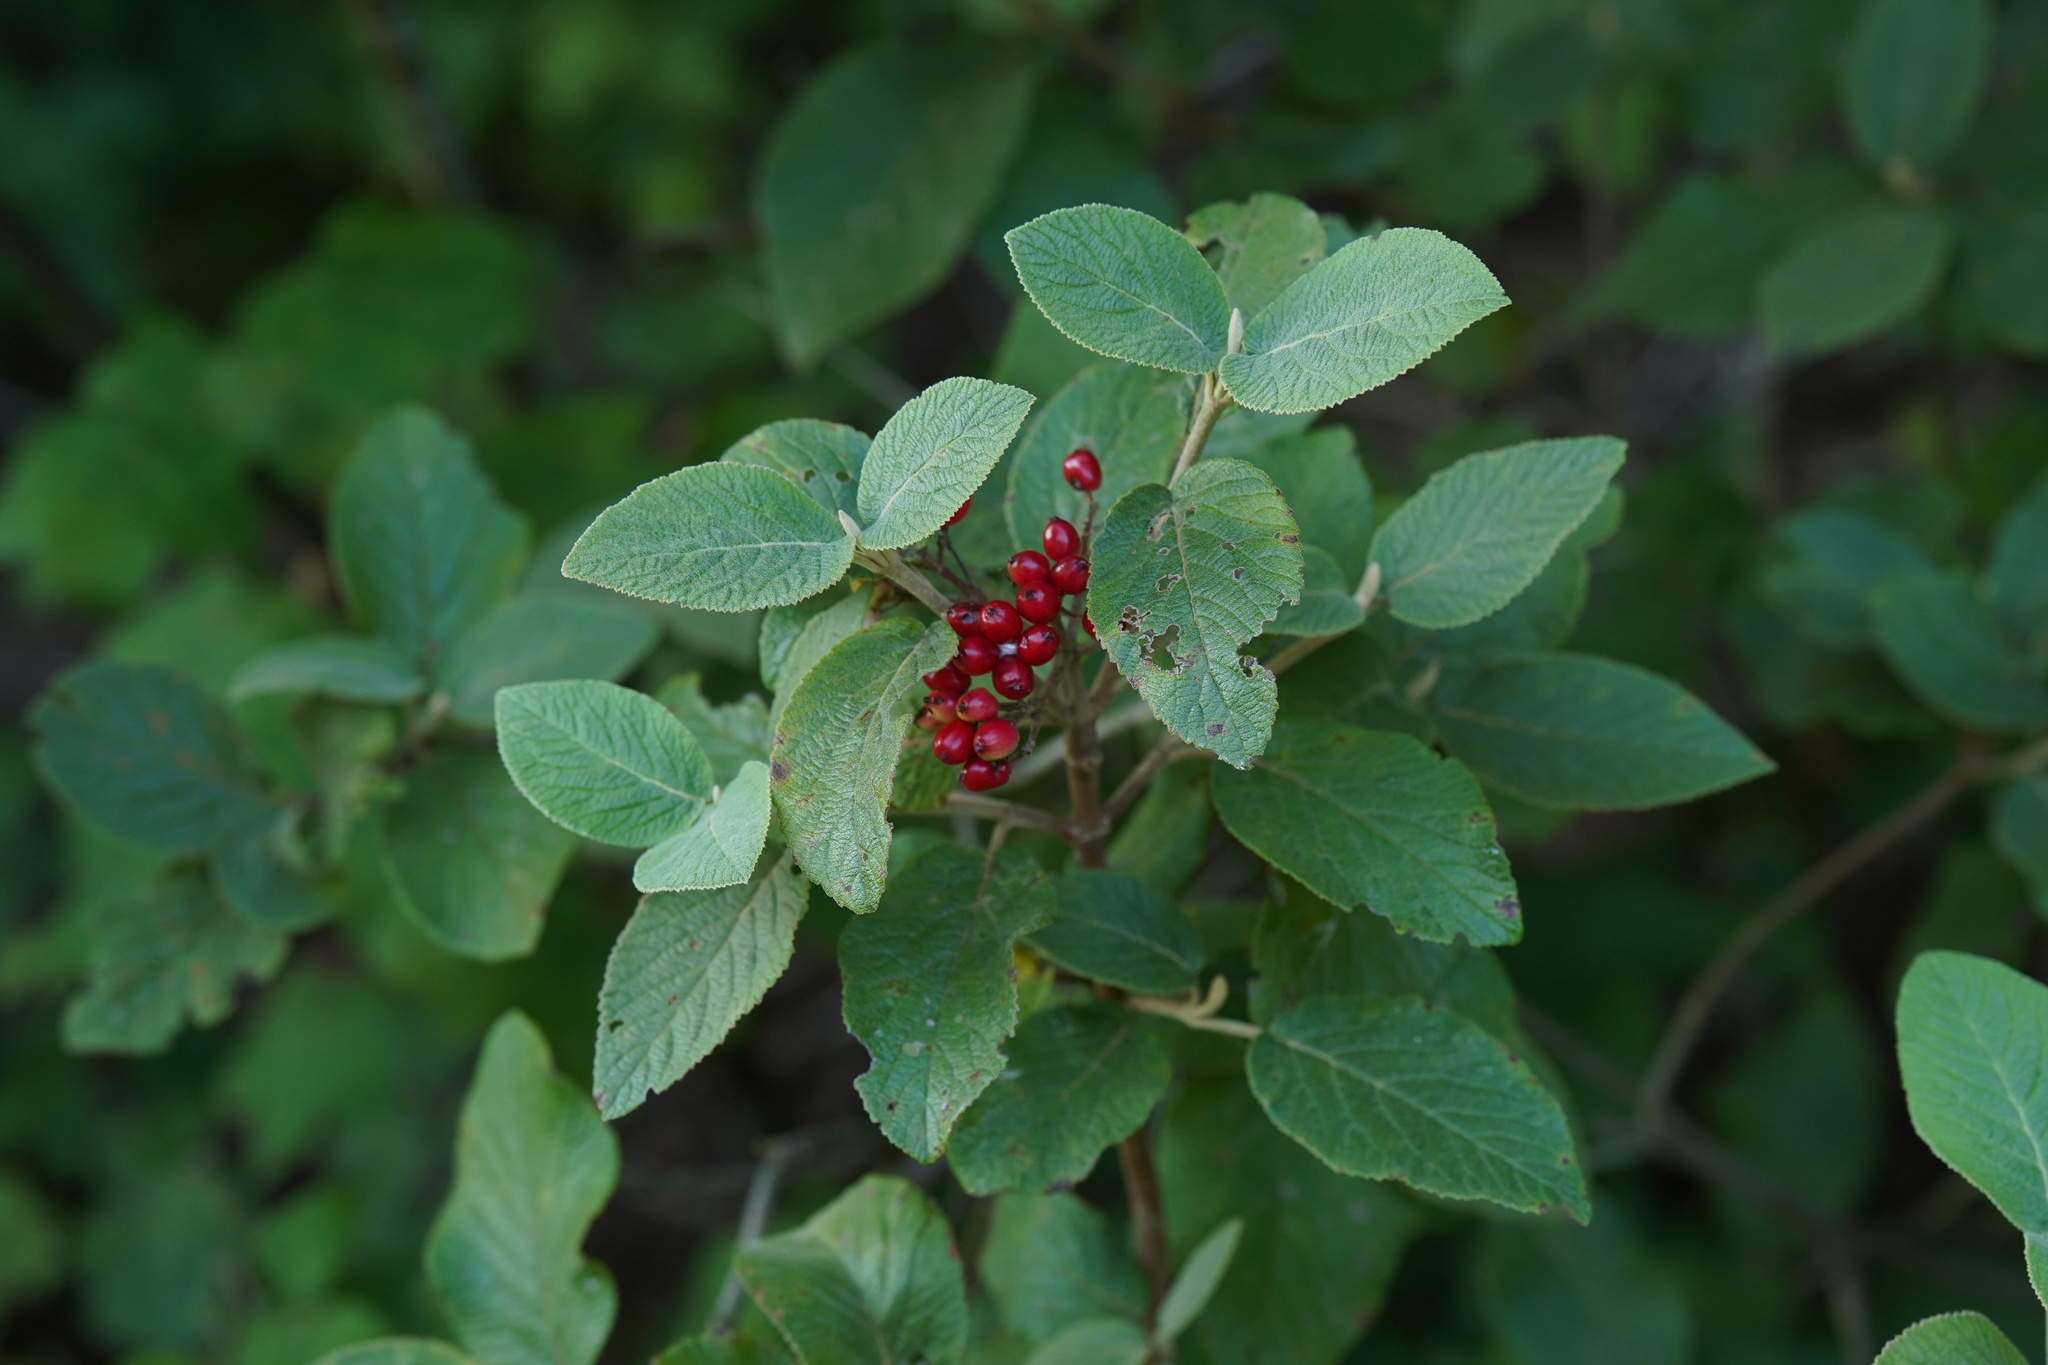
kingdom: Plantae
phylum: Tracheophyta
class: Magnoliopsida
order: Dipsacales
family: Viburnaceae
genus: Viburnum
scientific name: Viburnum lantana
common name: Wayfaring tree
